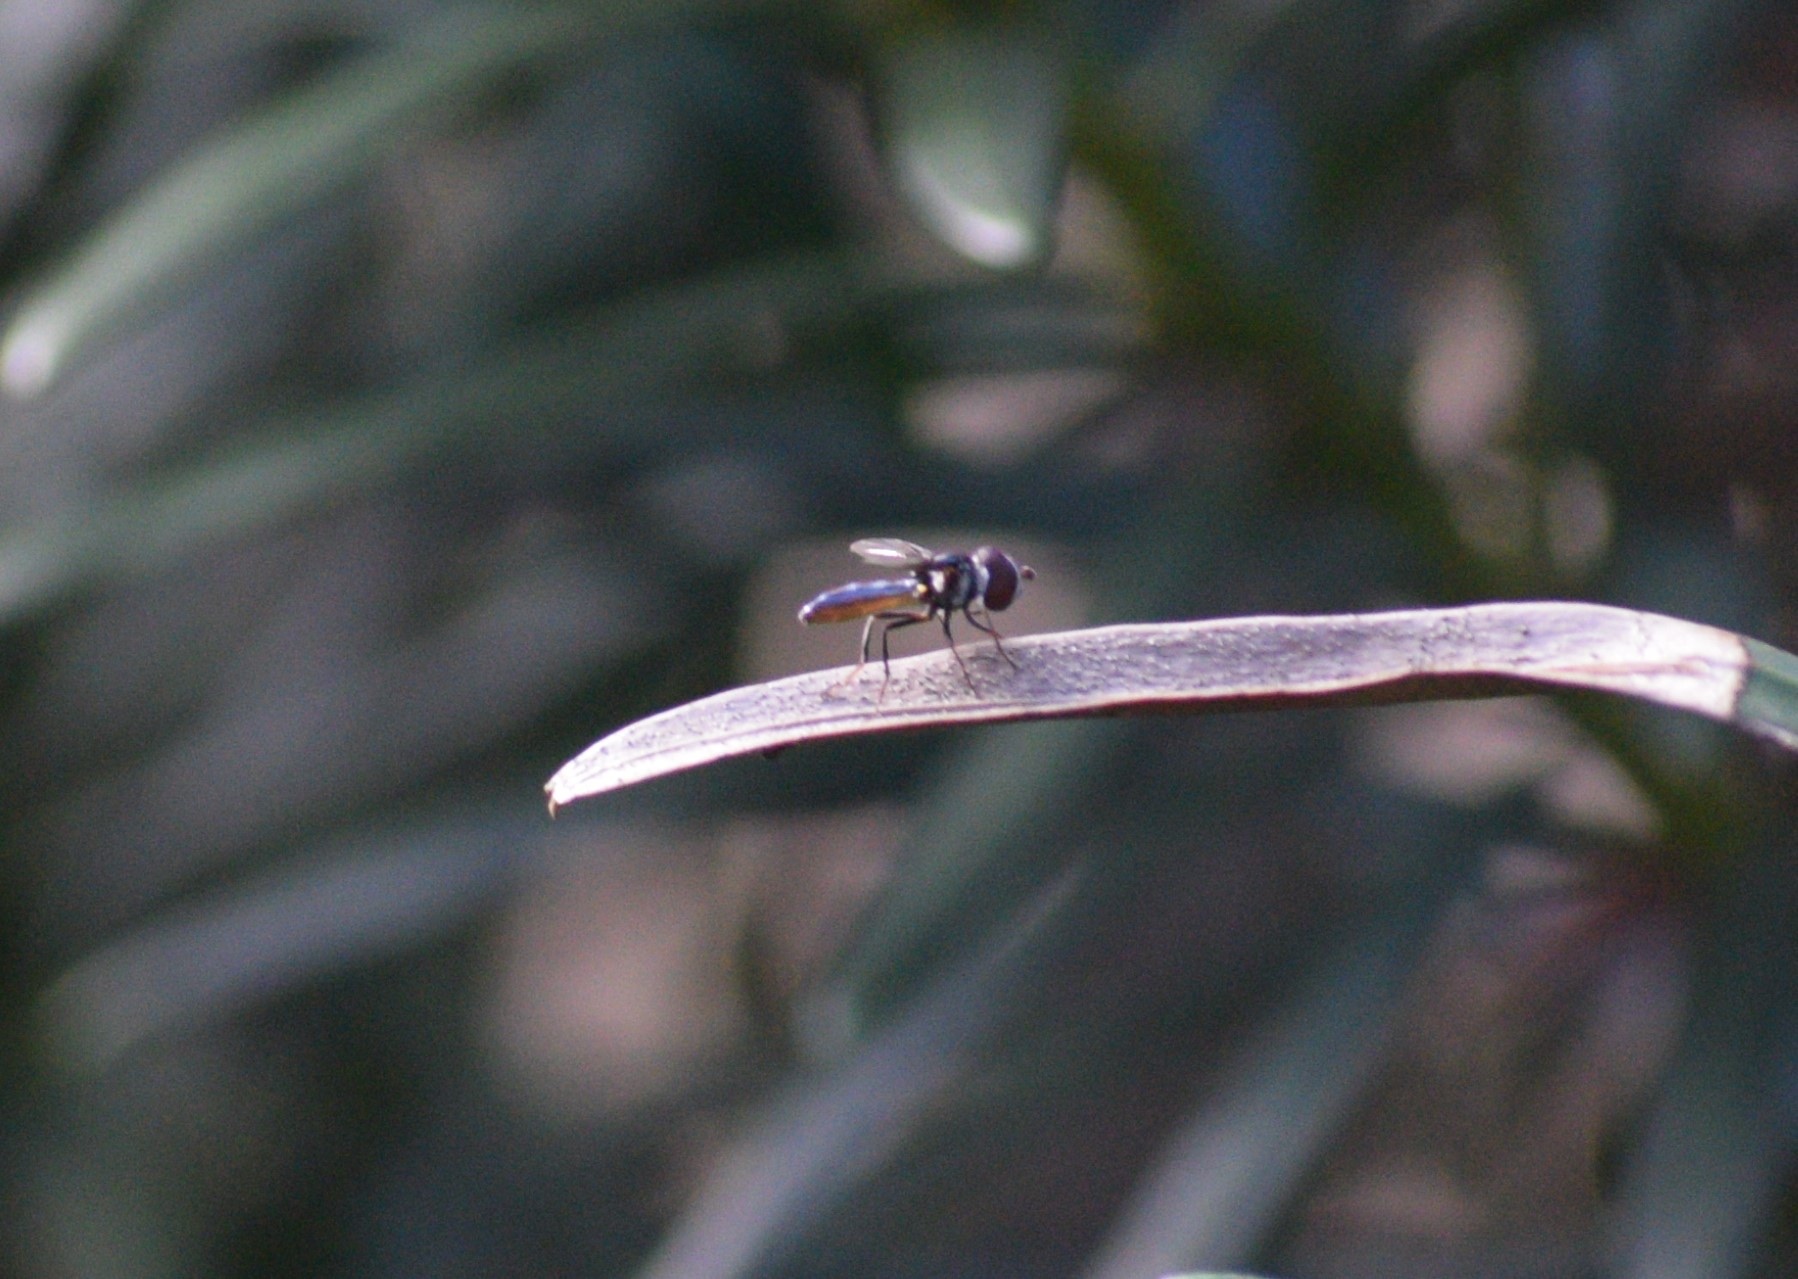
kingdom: Animalia
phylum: Arthropoda
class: Insecta
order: Diptera
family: Syrphidae
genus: Ocyptamus
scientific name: Ocyptamus dimidiatus
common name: Syrphid fly
